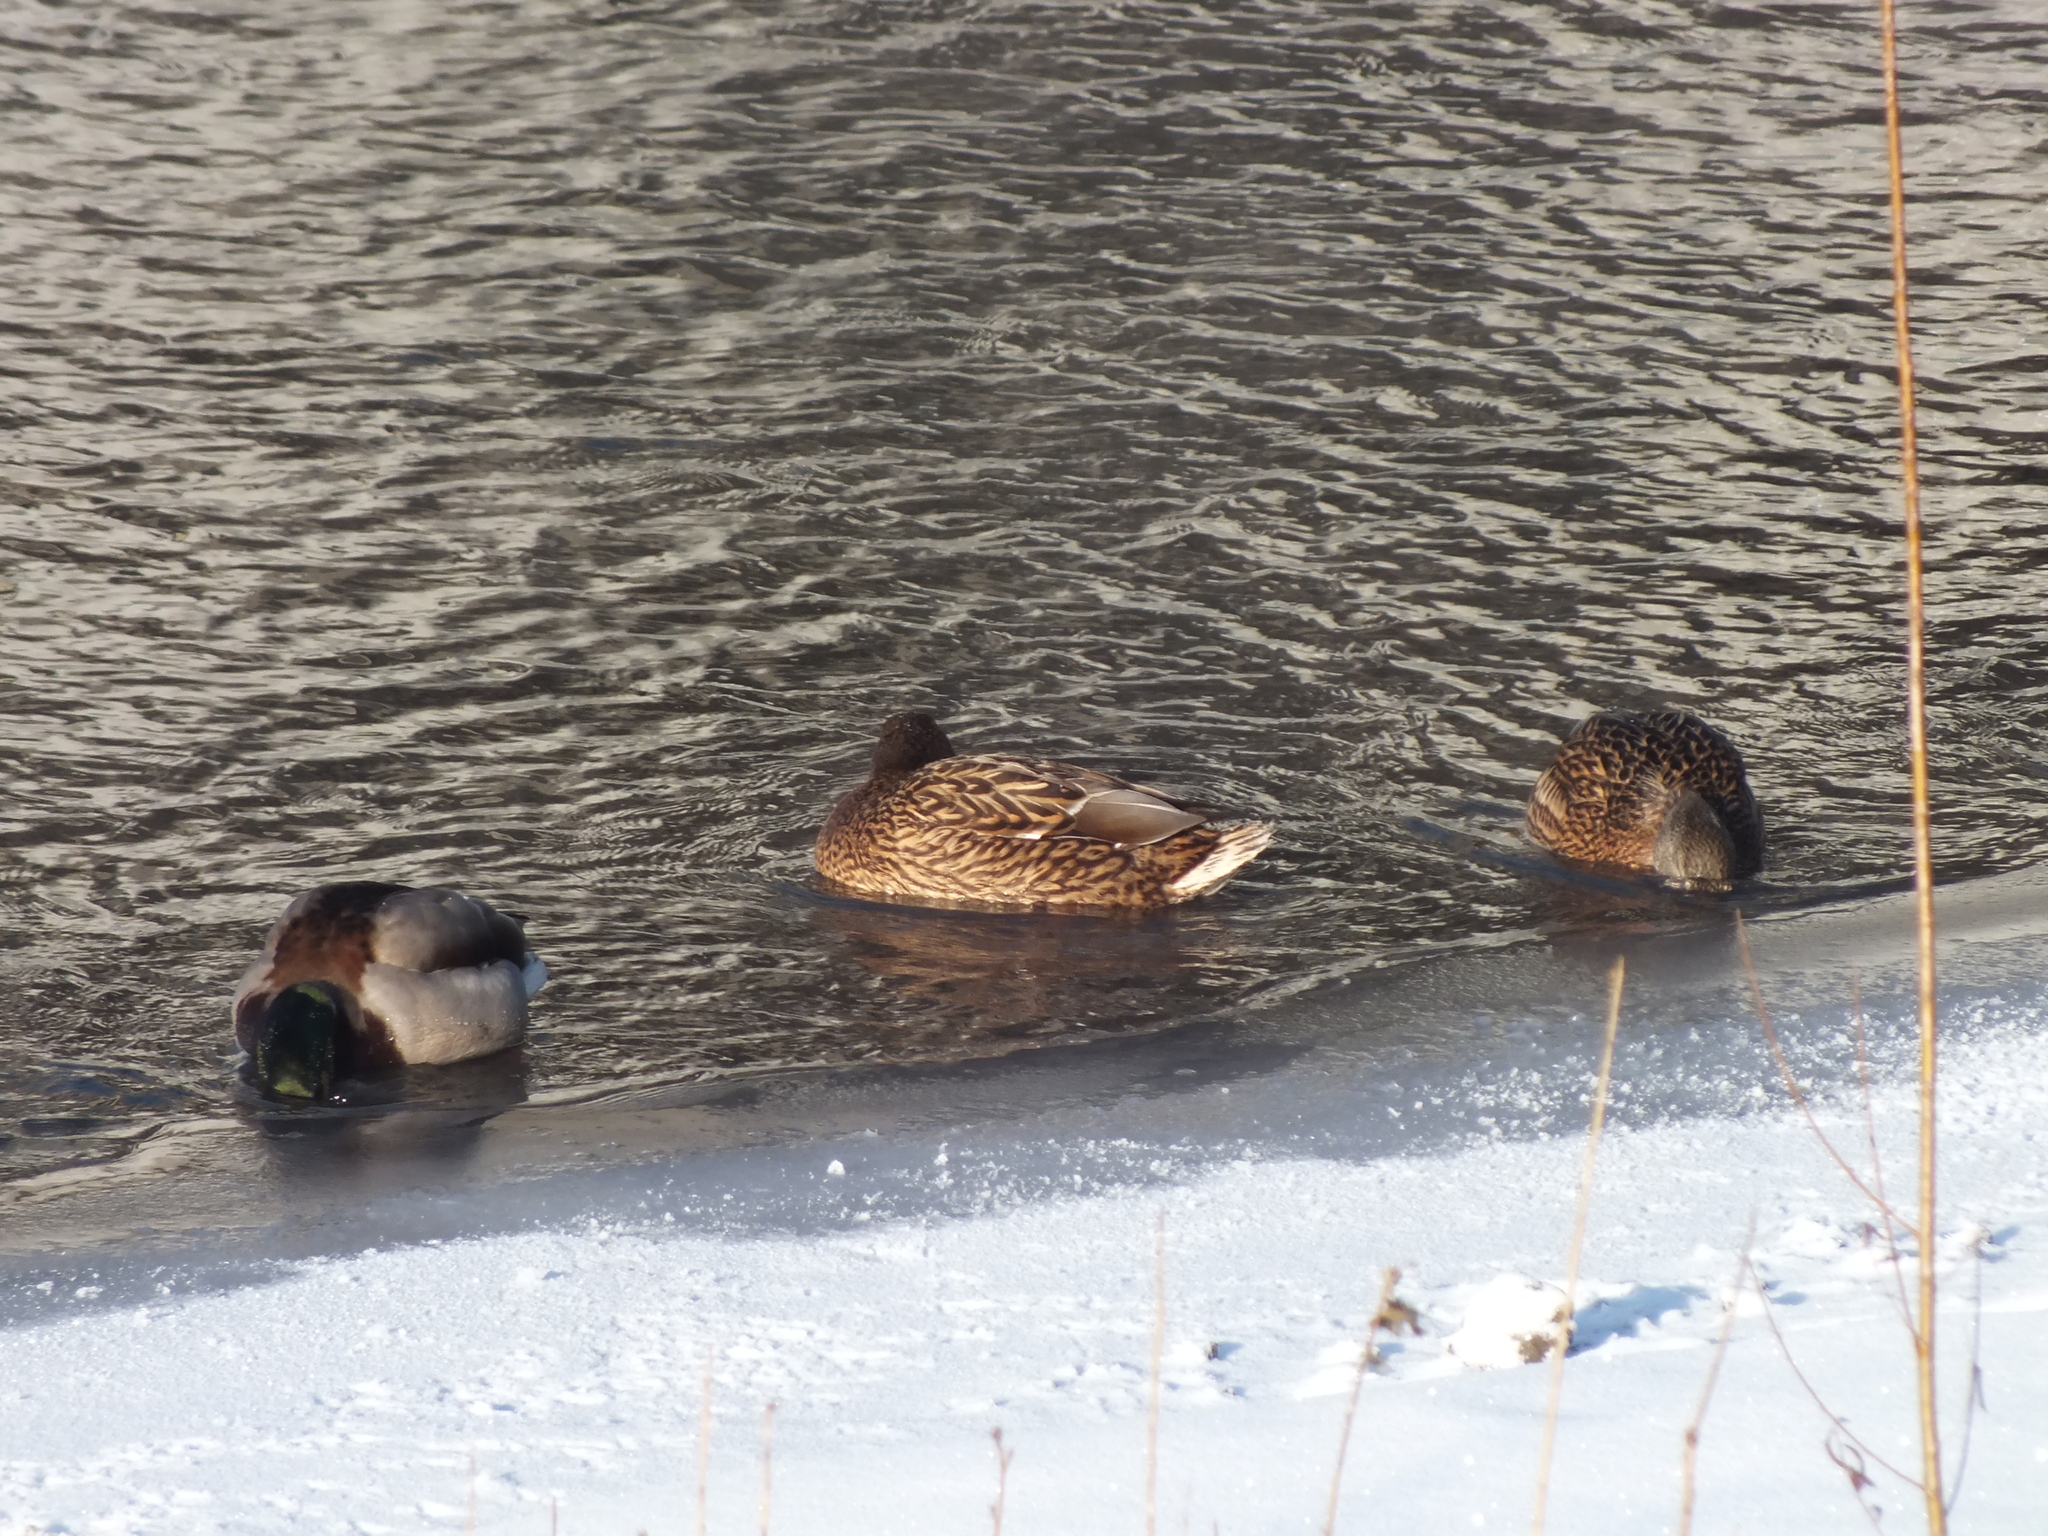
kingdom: Animalia
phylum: Chordata
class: Aves
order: Anseriformes
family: Anatidae
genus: Anas
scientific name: Anas platyrhynchos
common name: Mallard
